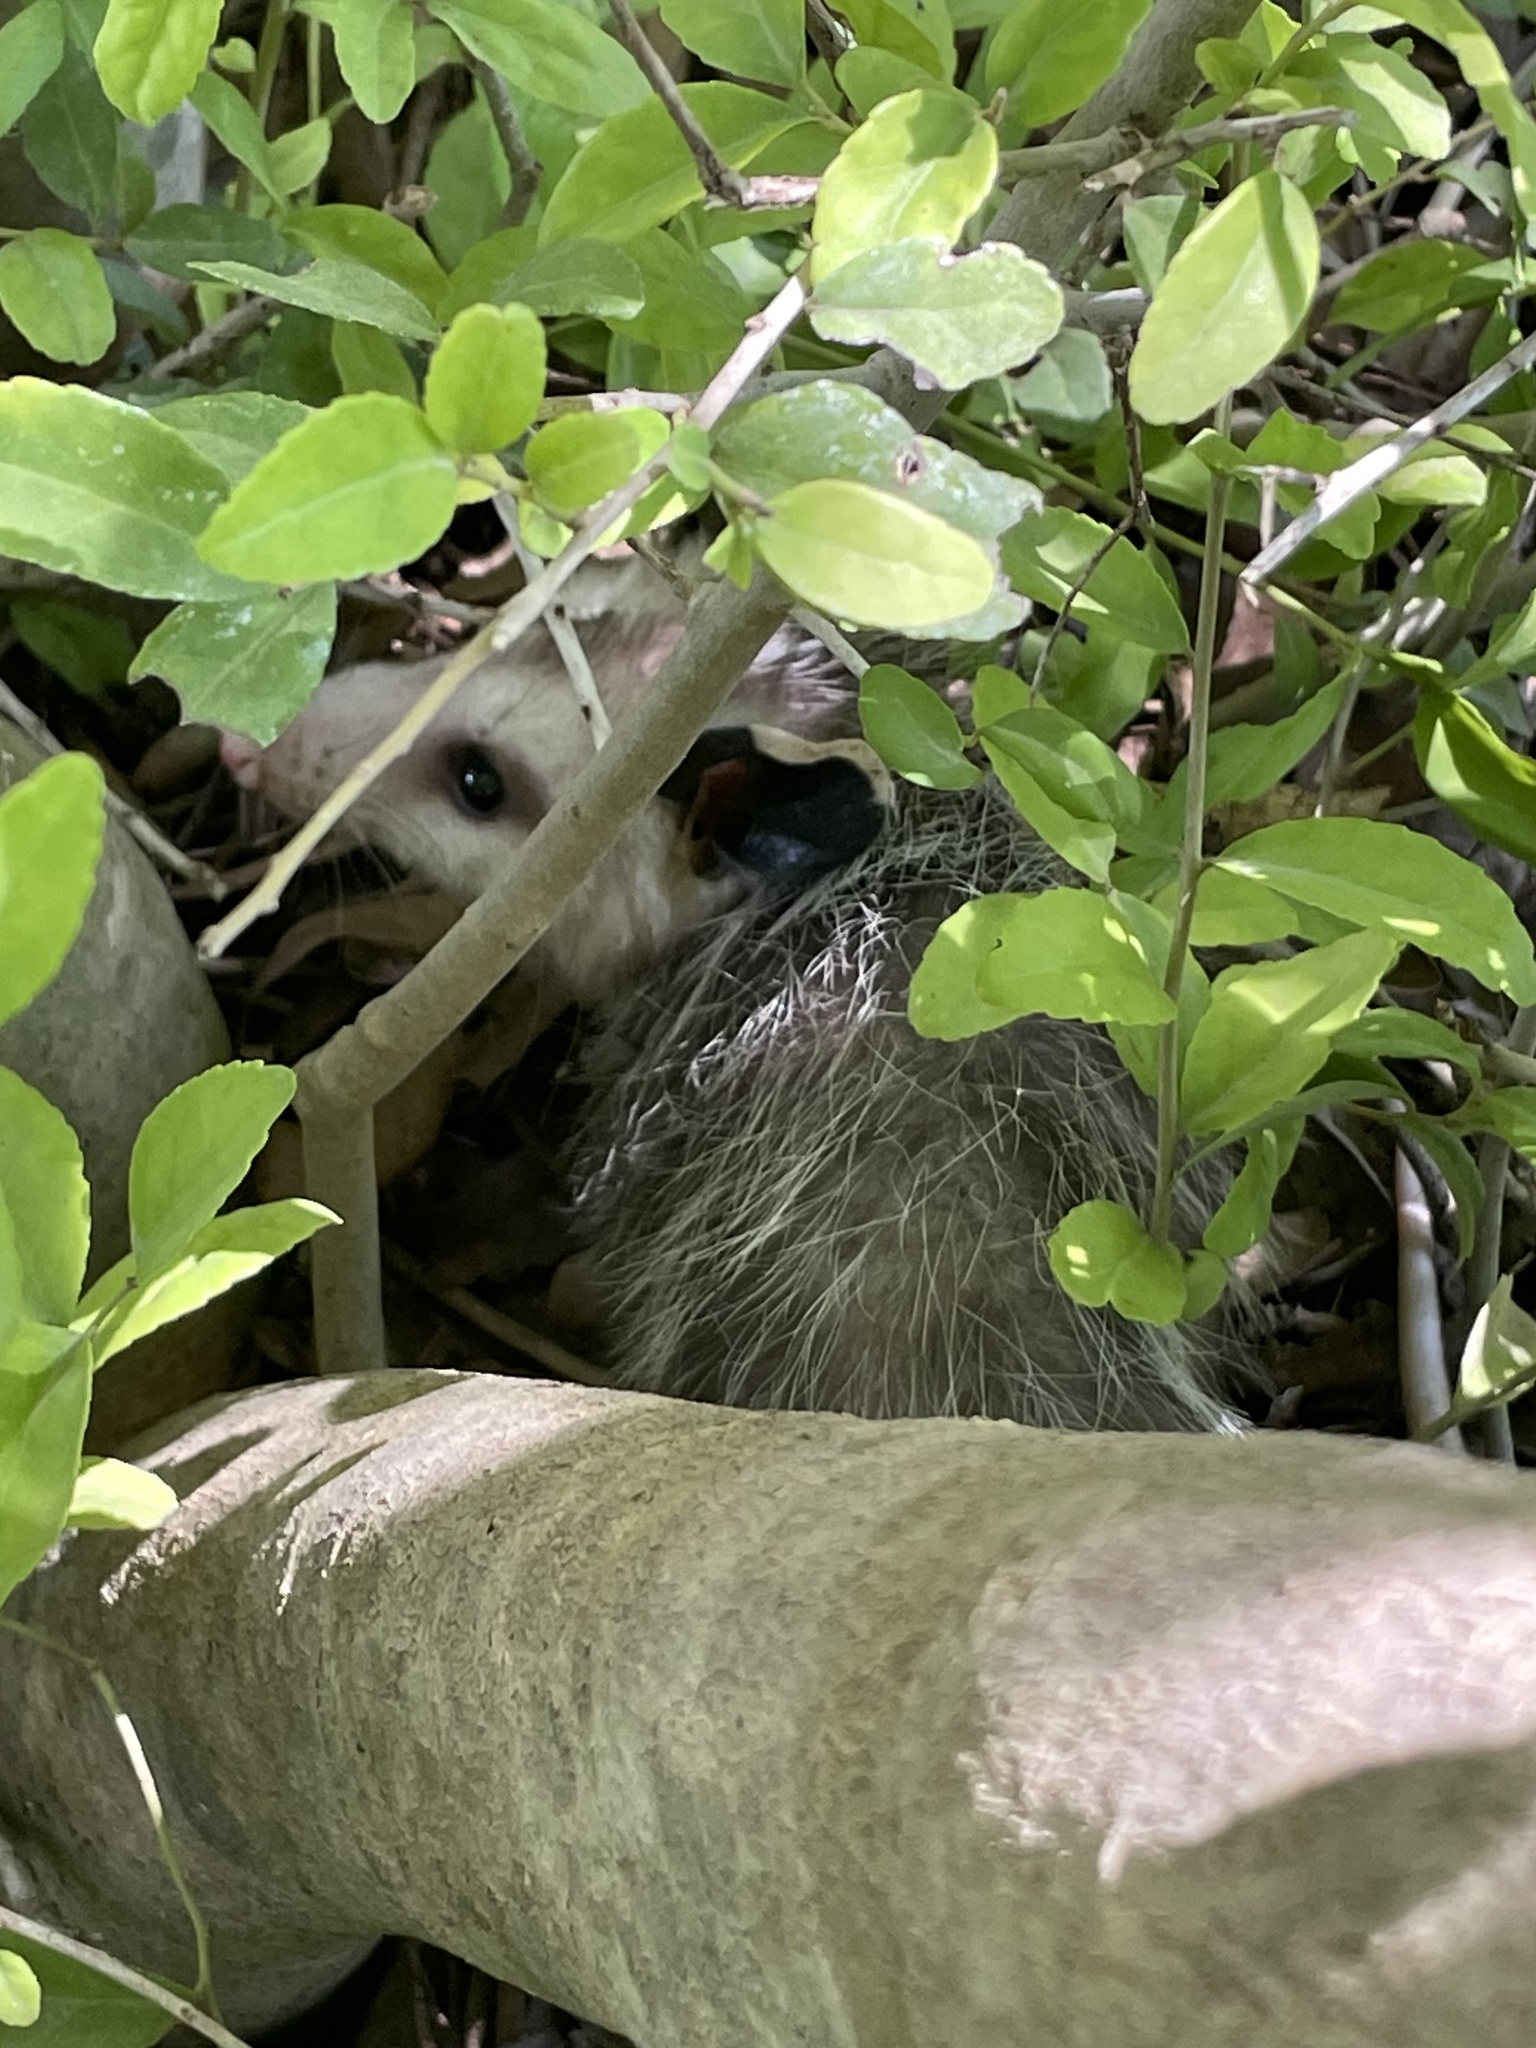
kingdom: Animalia
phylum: Chordata
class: Mammalia
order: Didelphimorphia
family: Didelphidae
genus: Didelphis
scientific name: Didelphis virginiana
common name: Virginia opossum
